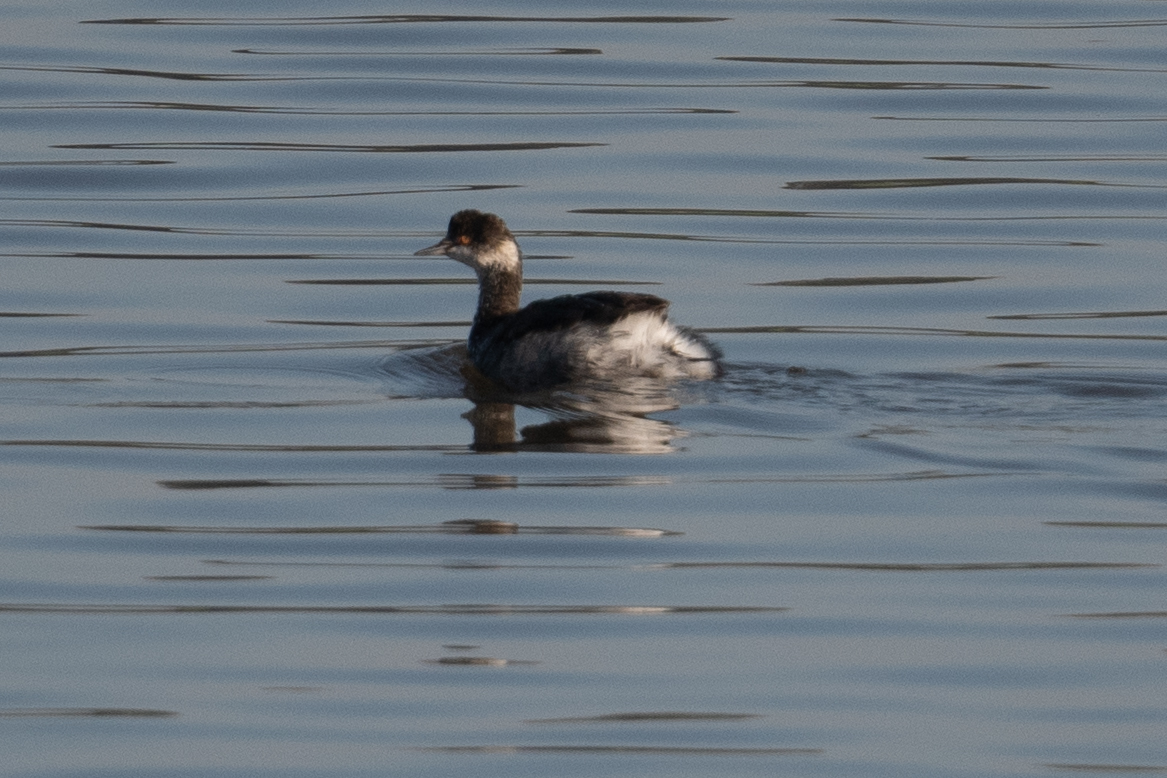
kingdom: Animalia
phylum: Chordata
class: Aves
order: Podicipediformes
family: Podicipedidae
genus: Podiceps
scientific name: Podiceps nigricollis
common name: Black-necked grebe
